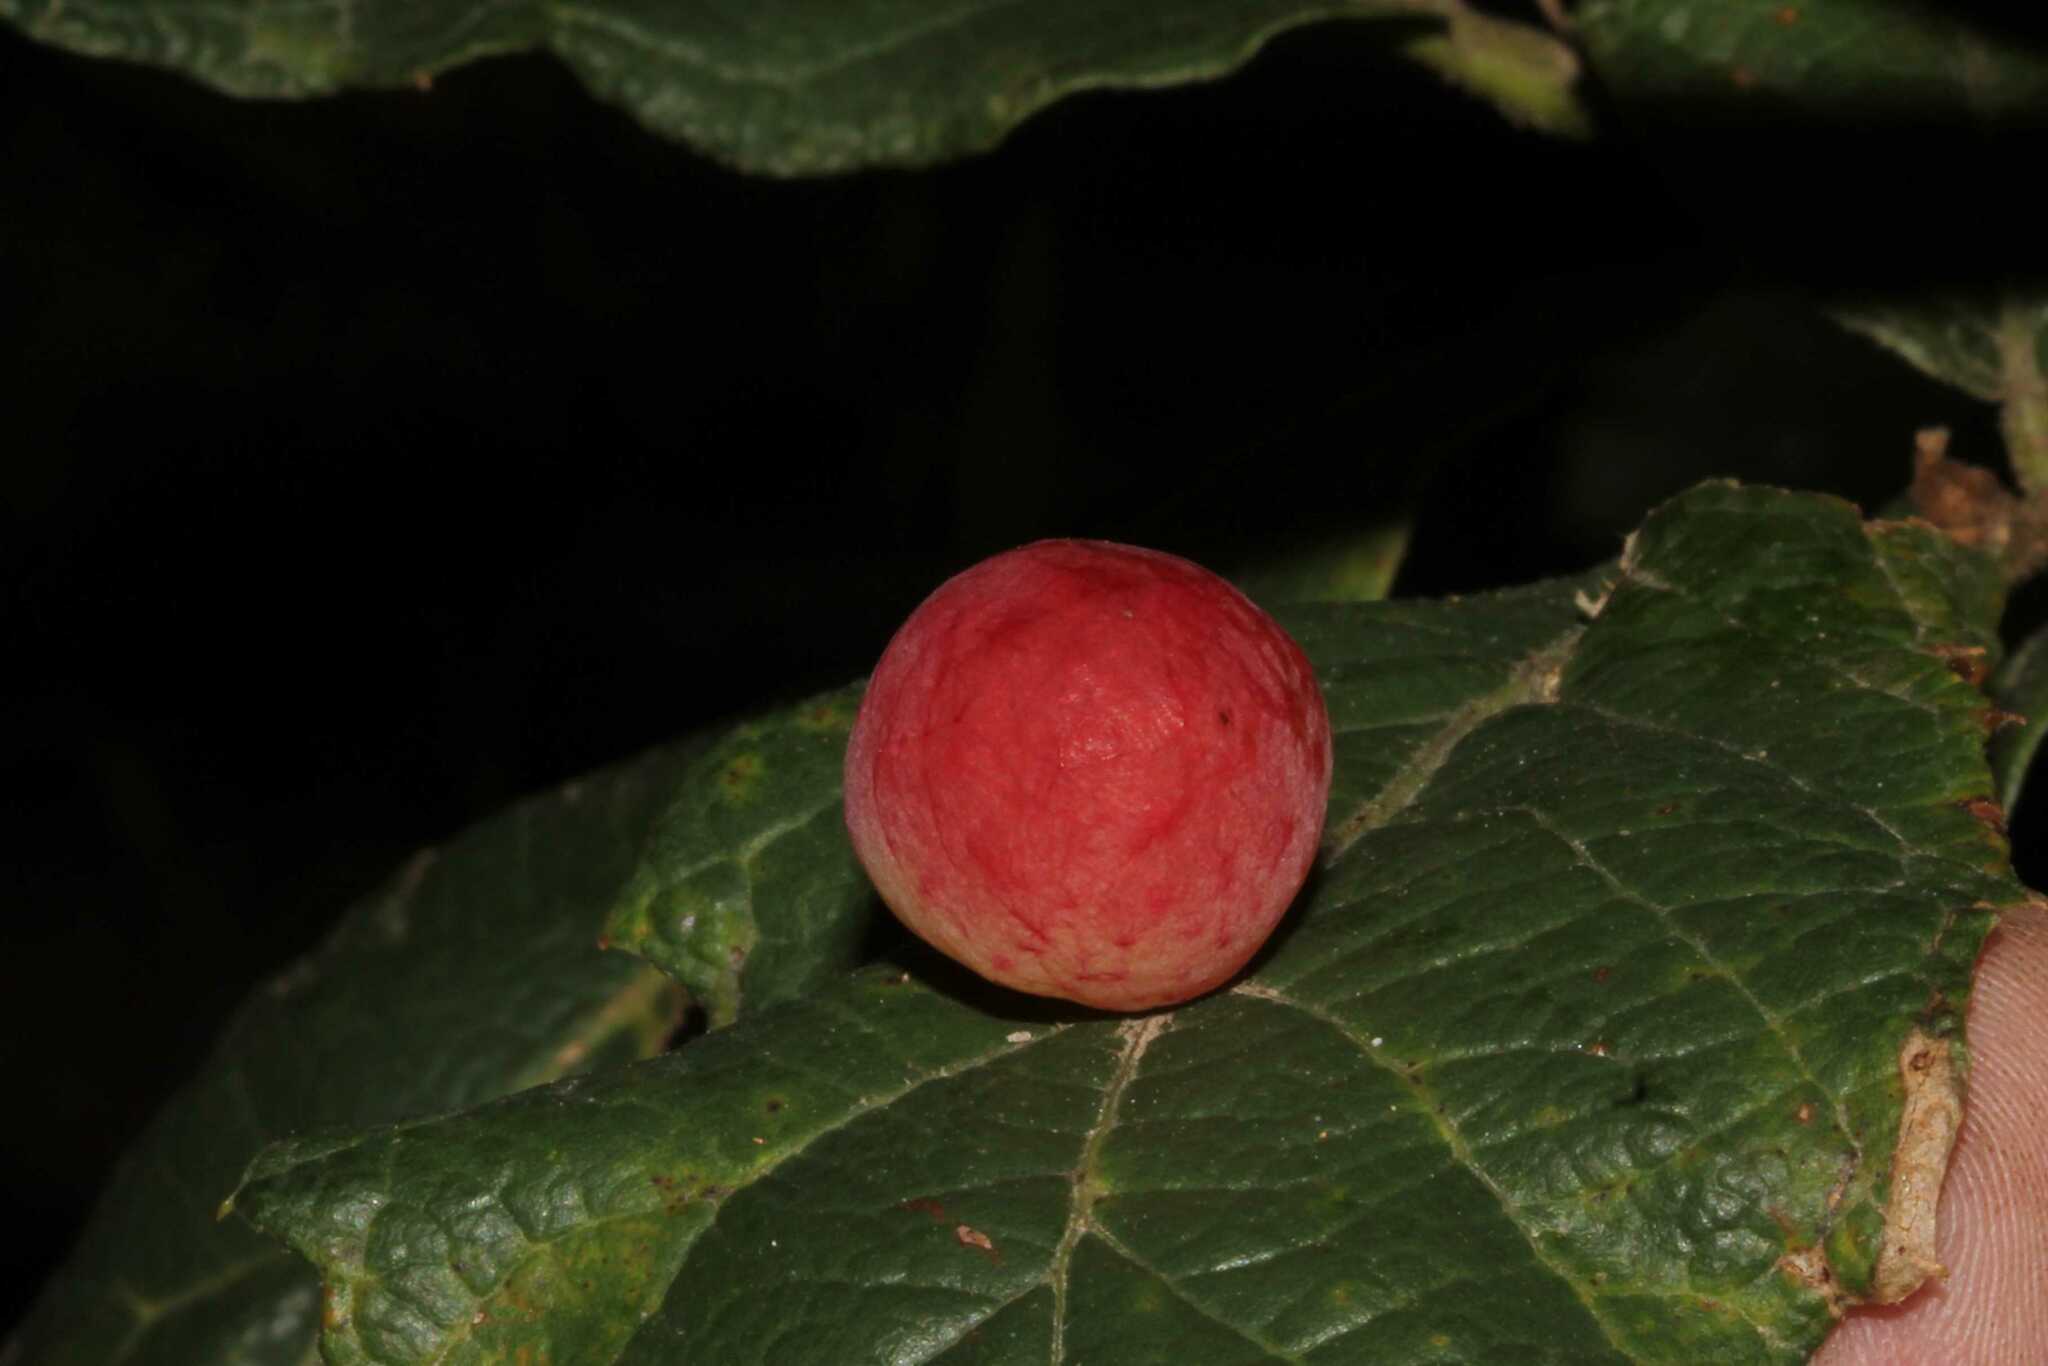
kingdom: Animalia
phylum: Arthropoda
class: Insecta
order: Hymenoptera
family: Cynipidae
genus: Atrusca
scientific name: Atrusca
